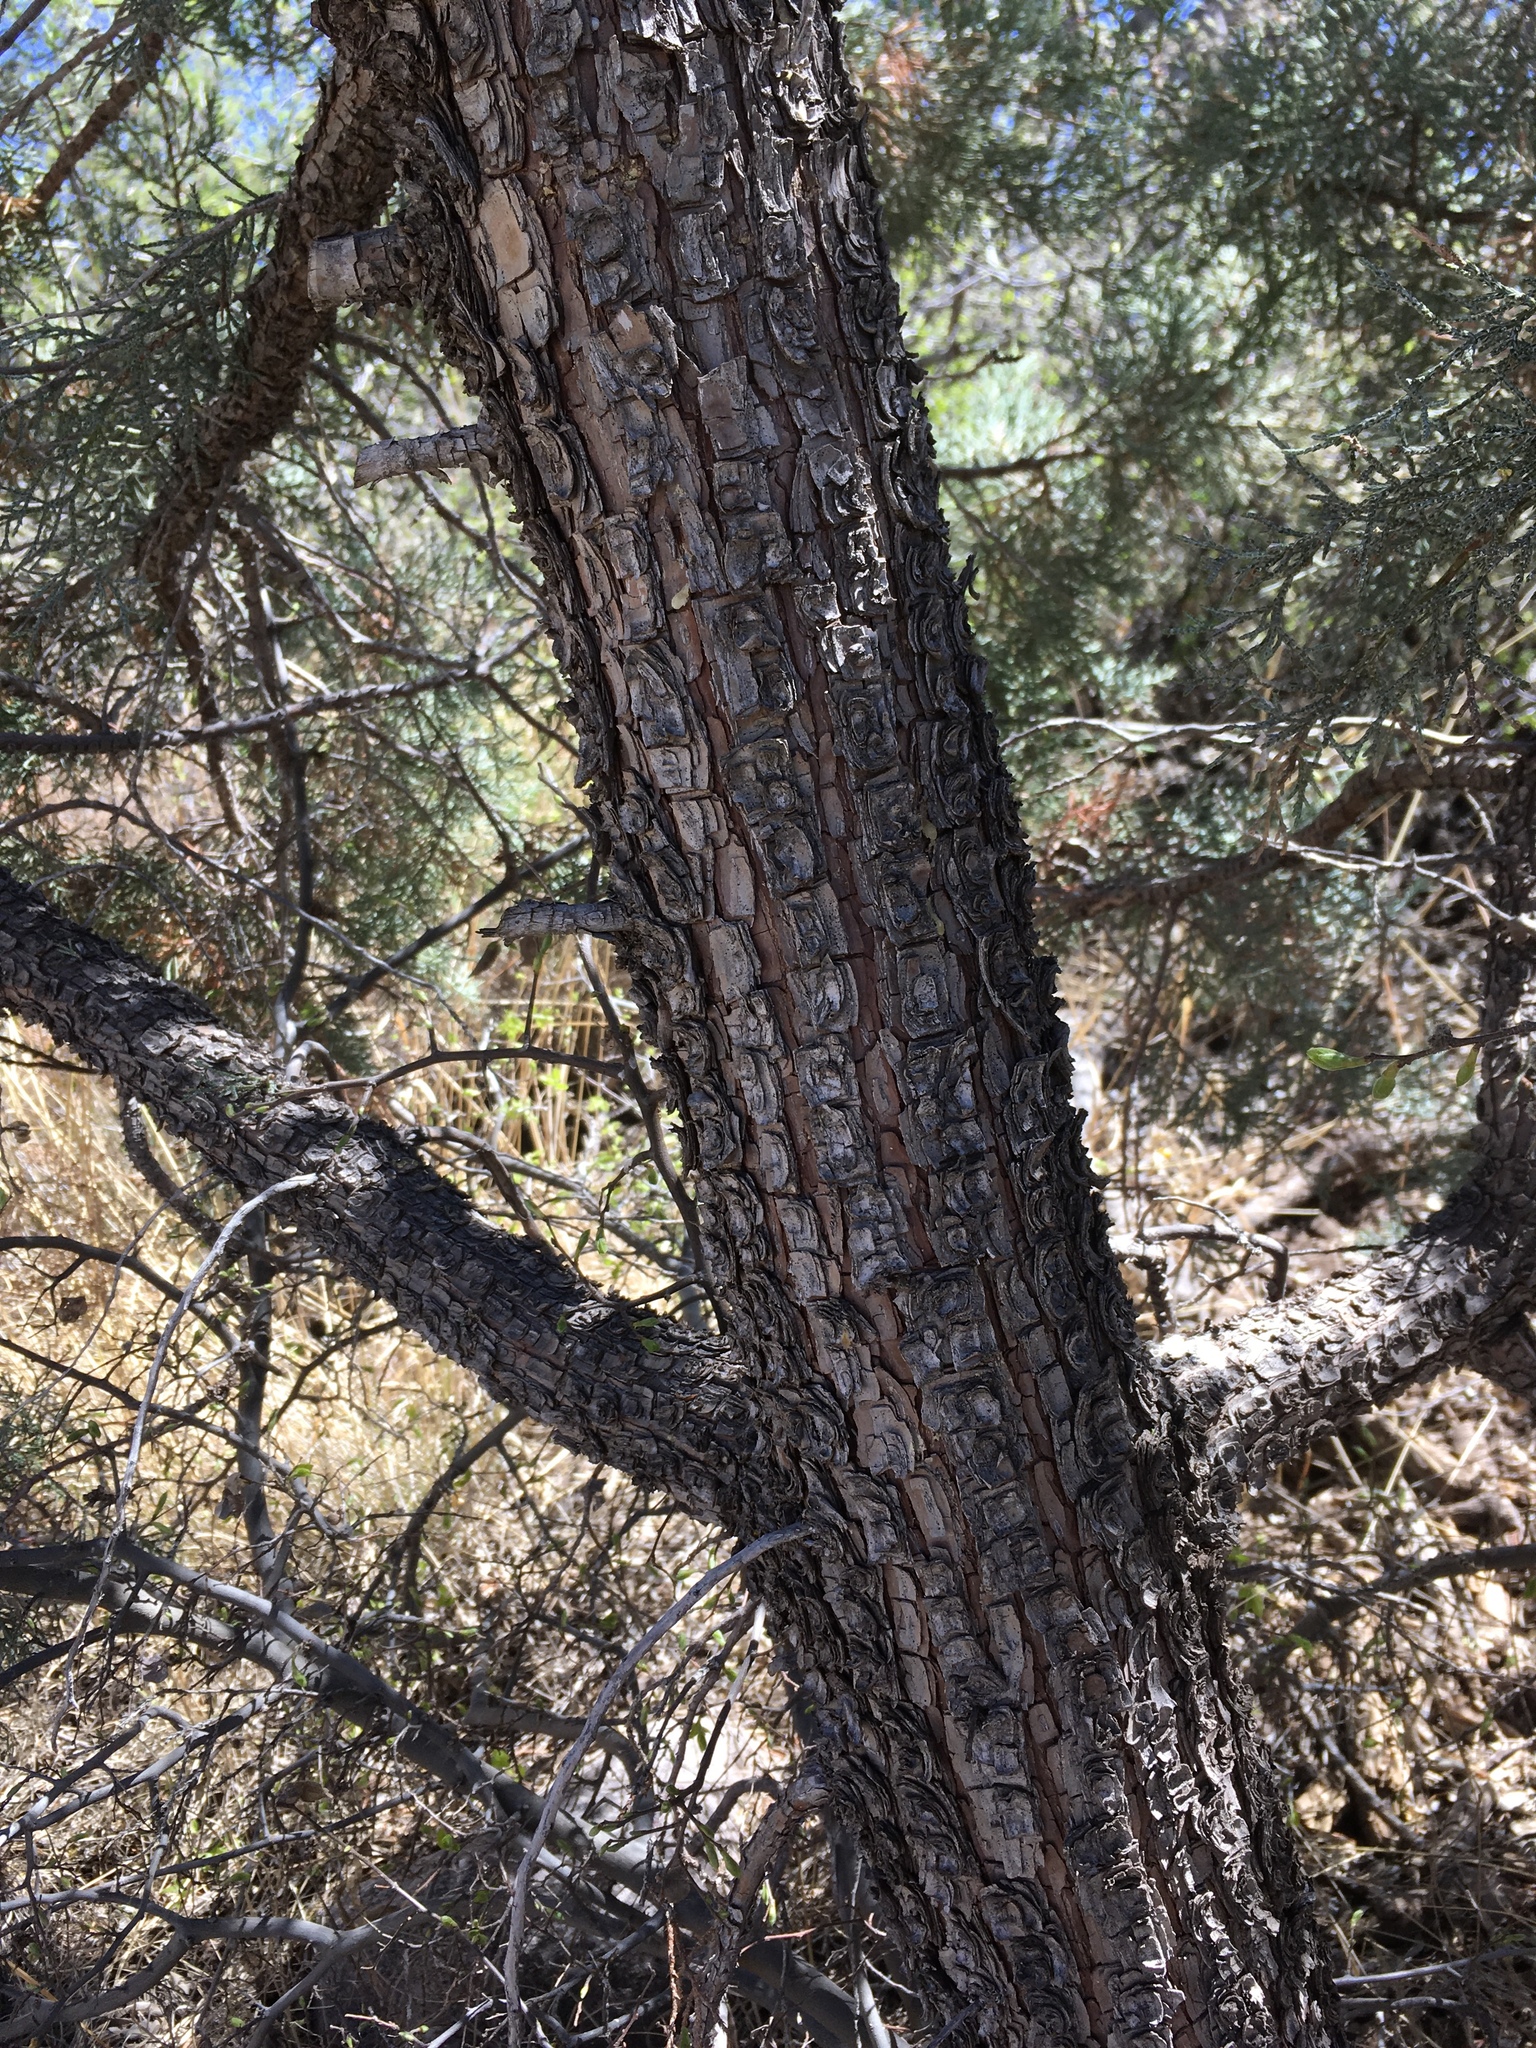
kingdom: Plantae
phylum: Tracheophyta
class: Pinopsida
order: Pinales
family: Cupressaceae
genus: Juniperus
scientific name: Juniperus deppeana
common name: Alligator juniper
